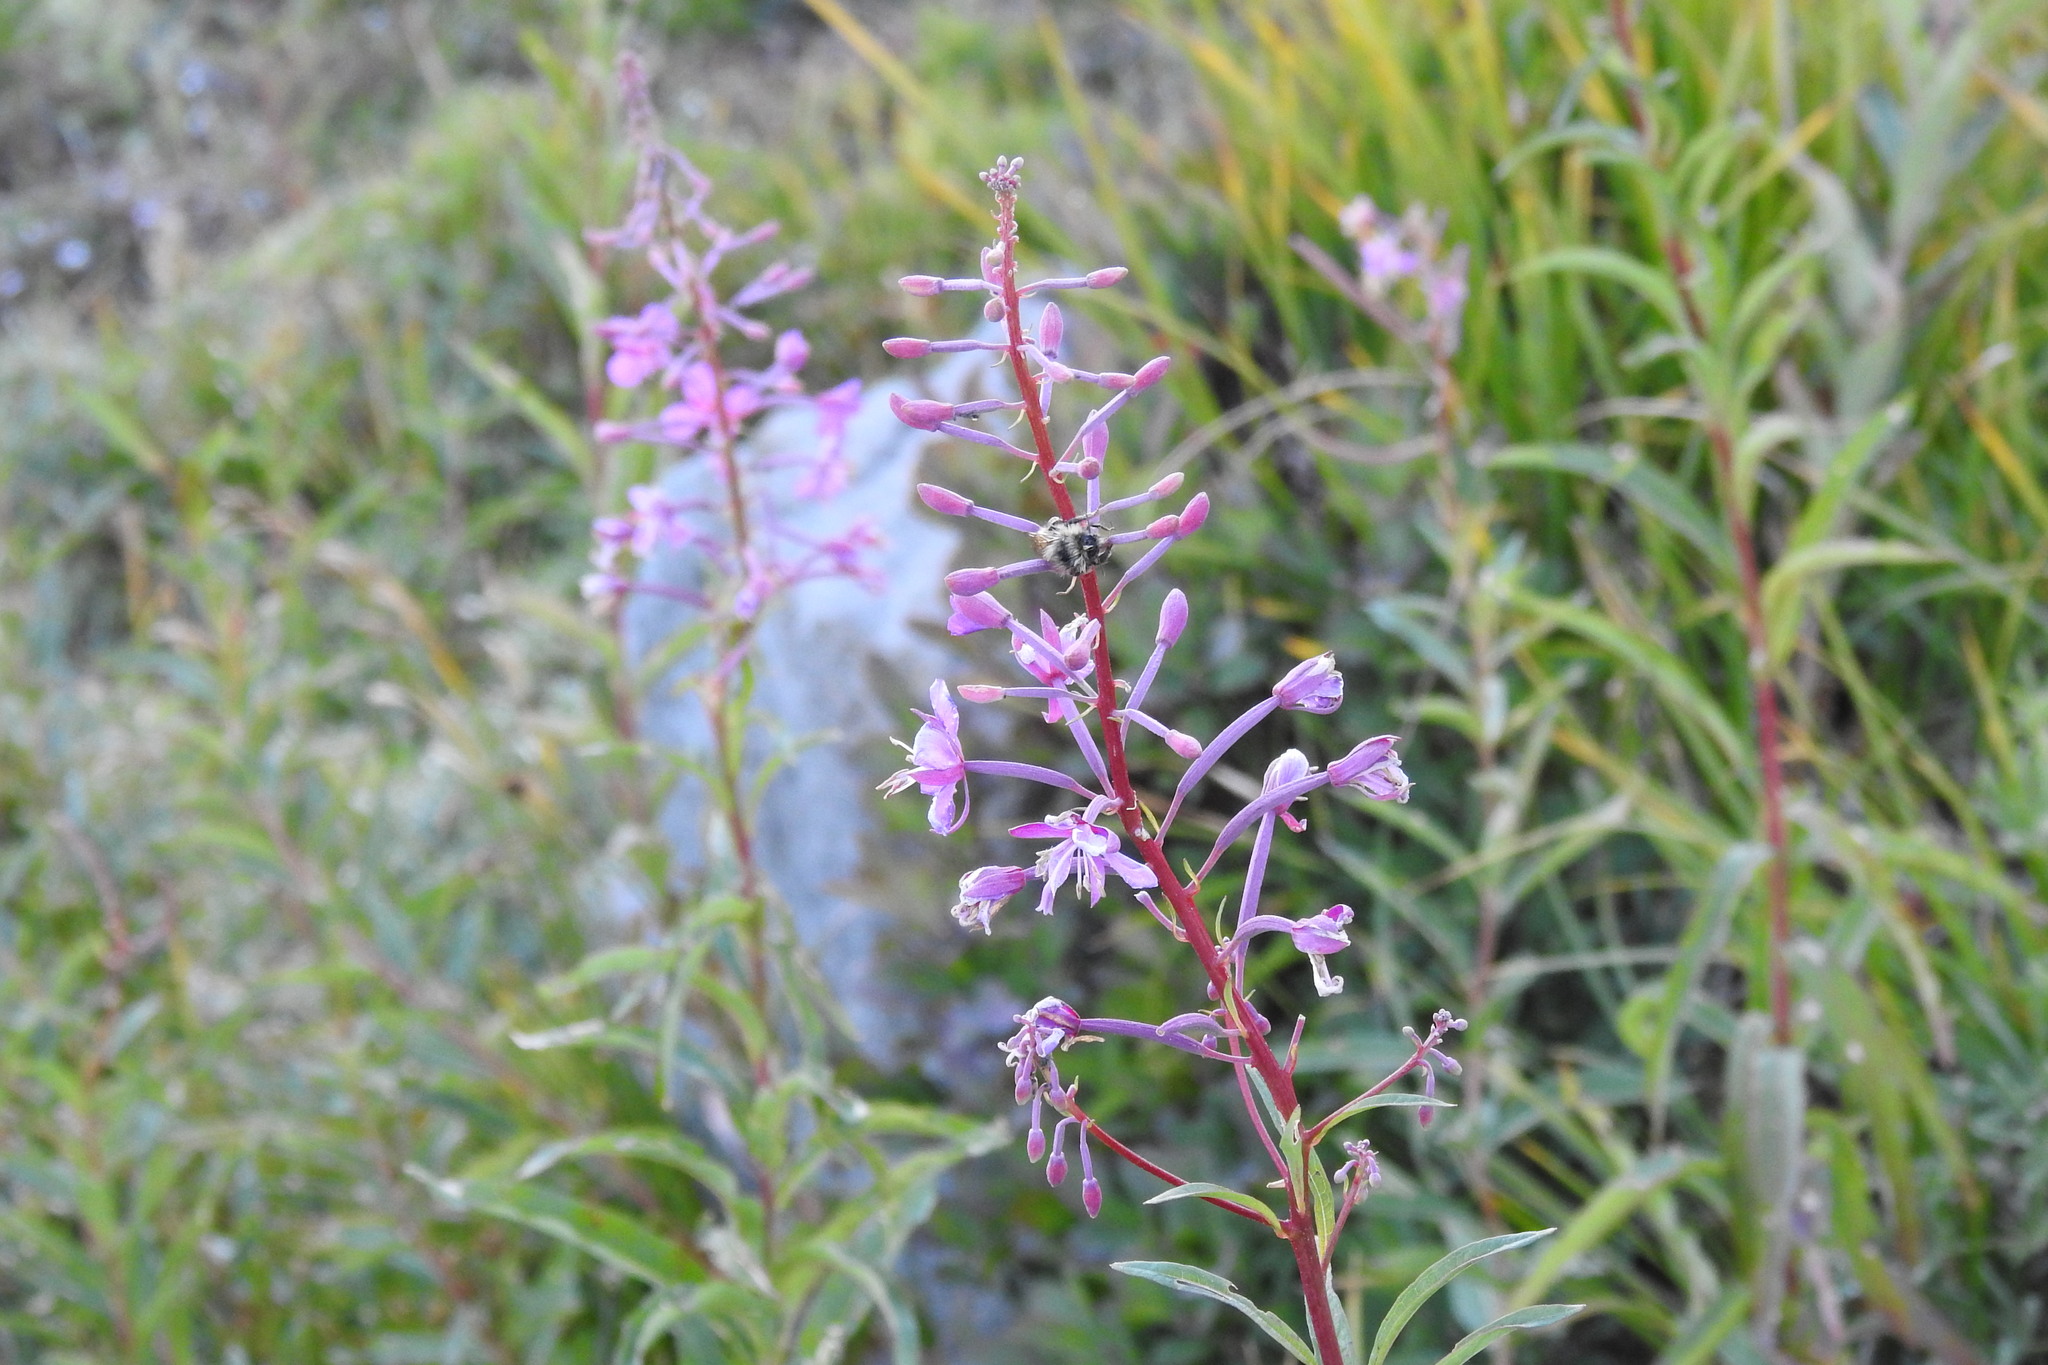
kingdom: Plantae
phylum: Tracheophyta
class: Magnoliopsida
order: Myrtales
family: Onagraceae
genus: Chamaenerion
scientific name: Chamaenerion angustifolium
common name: Fireweed
